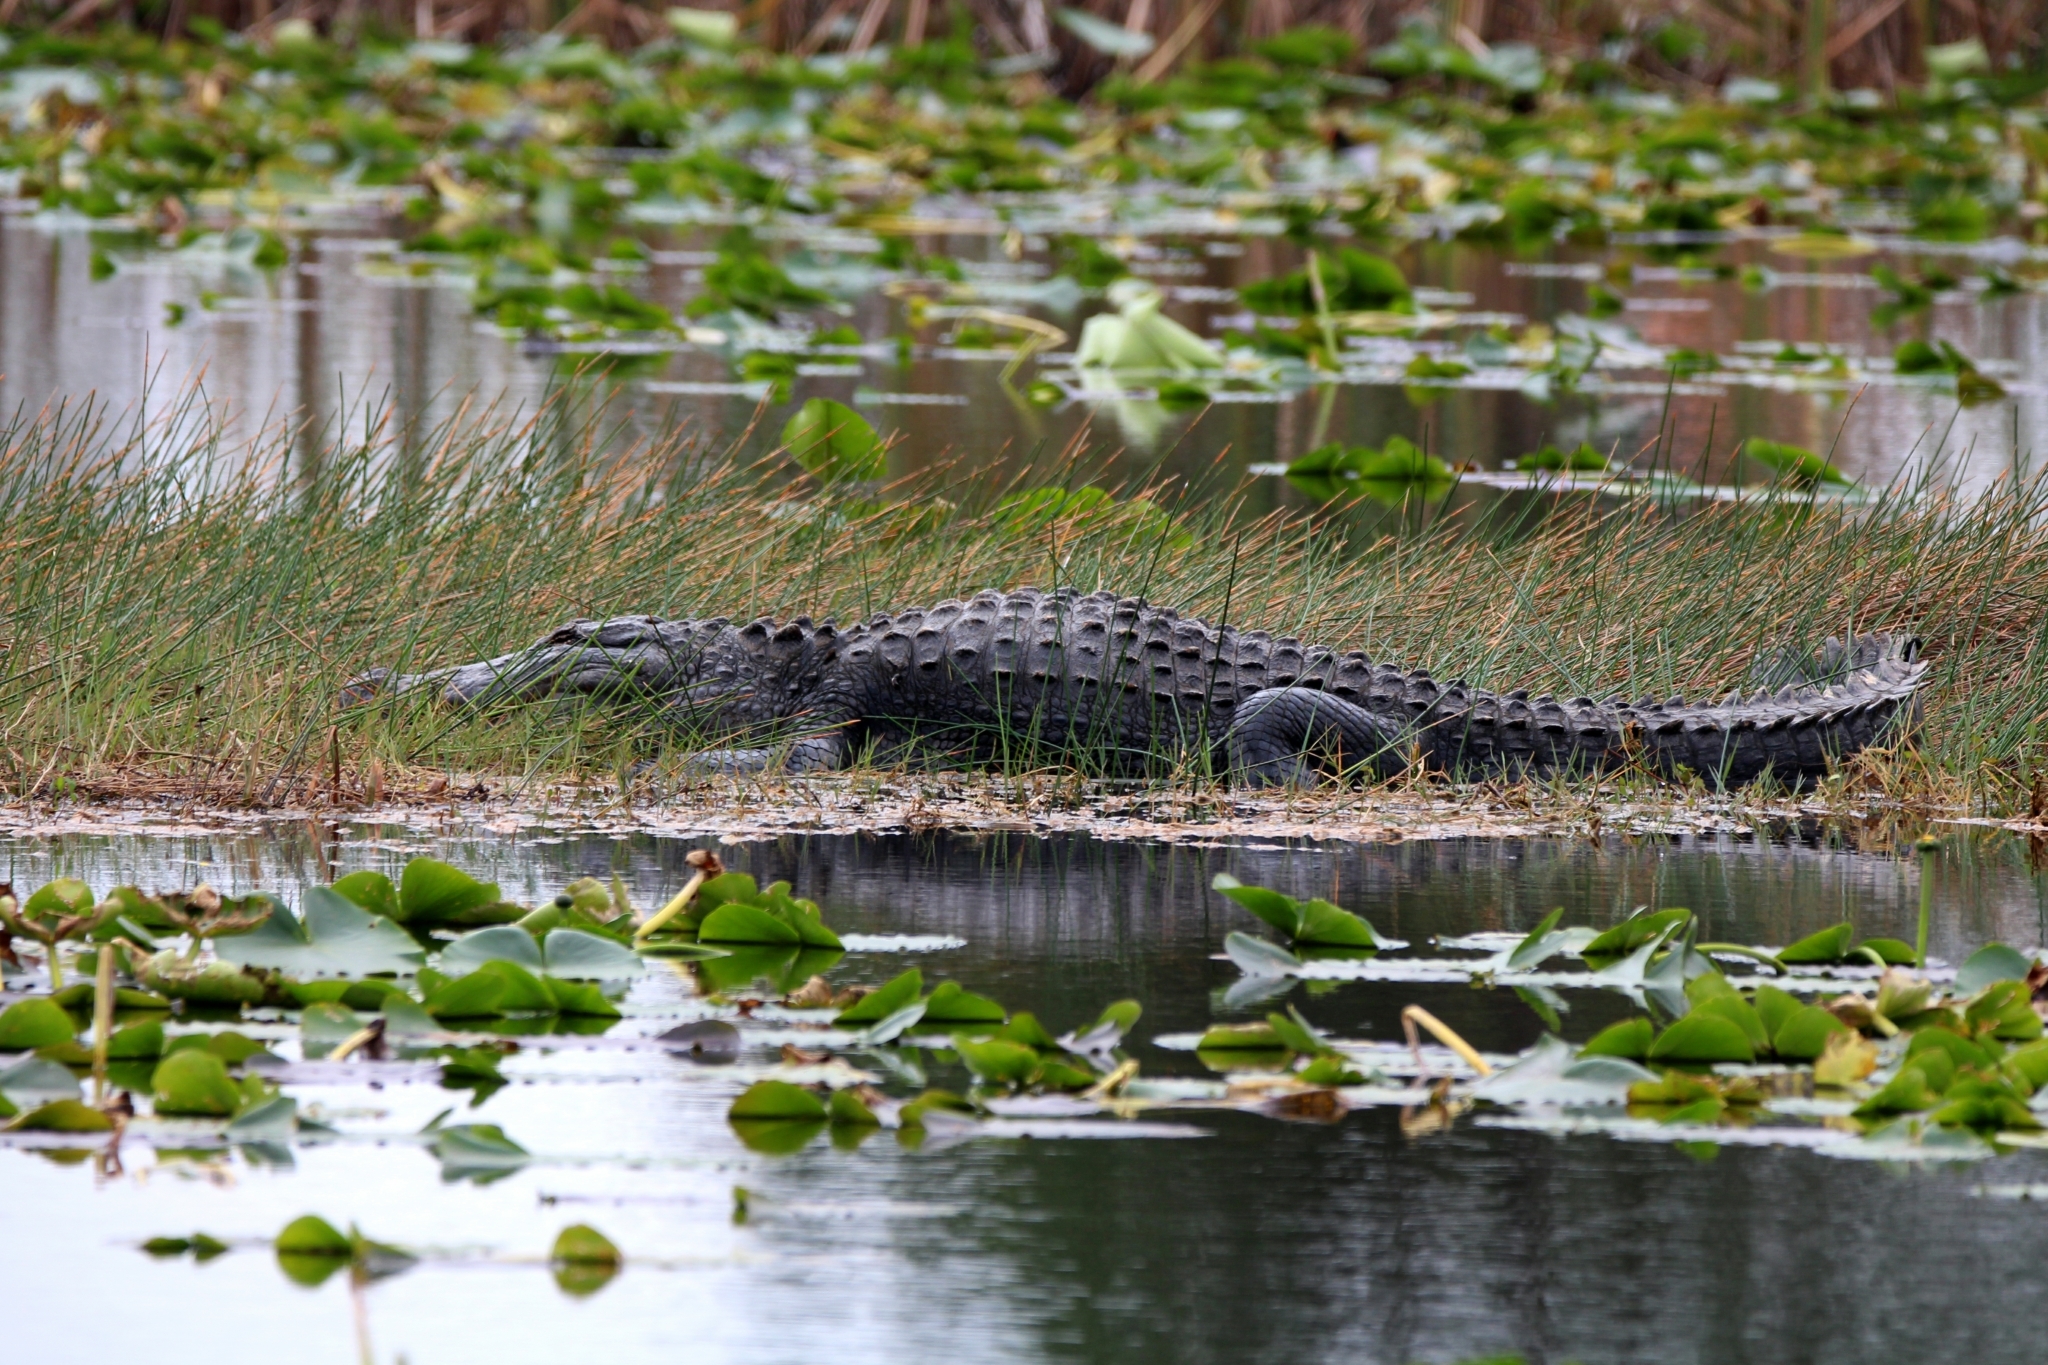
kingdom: Animalia
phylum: Chordata
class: Crocodylia
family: Alligatoridae
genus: Alligator
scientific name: Alligator mississippiensis
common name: American alligator
